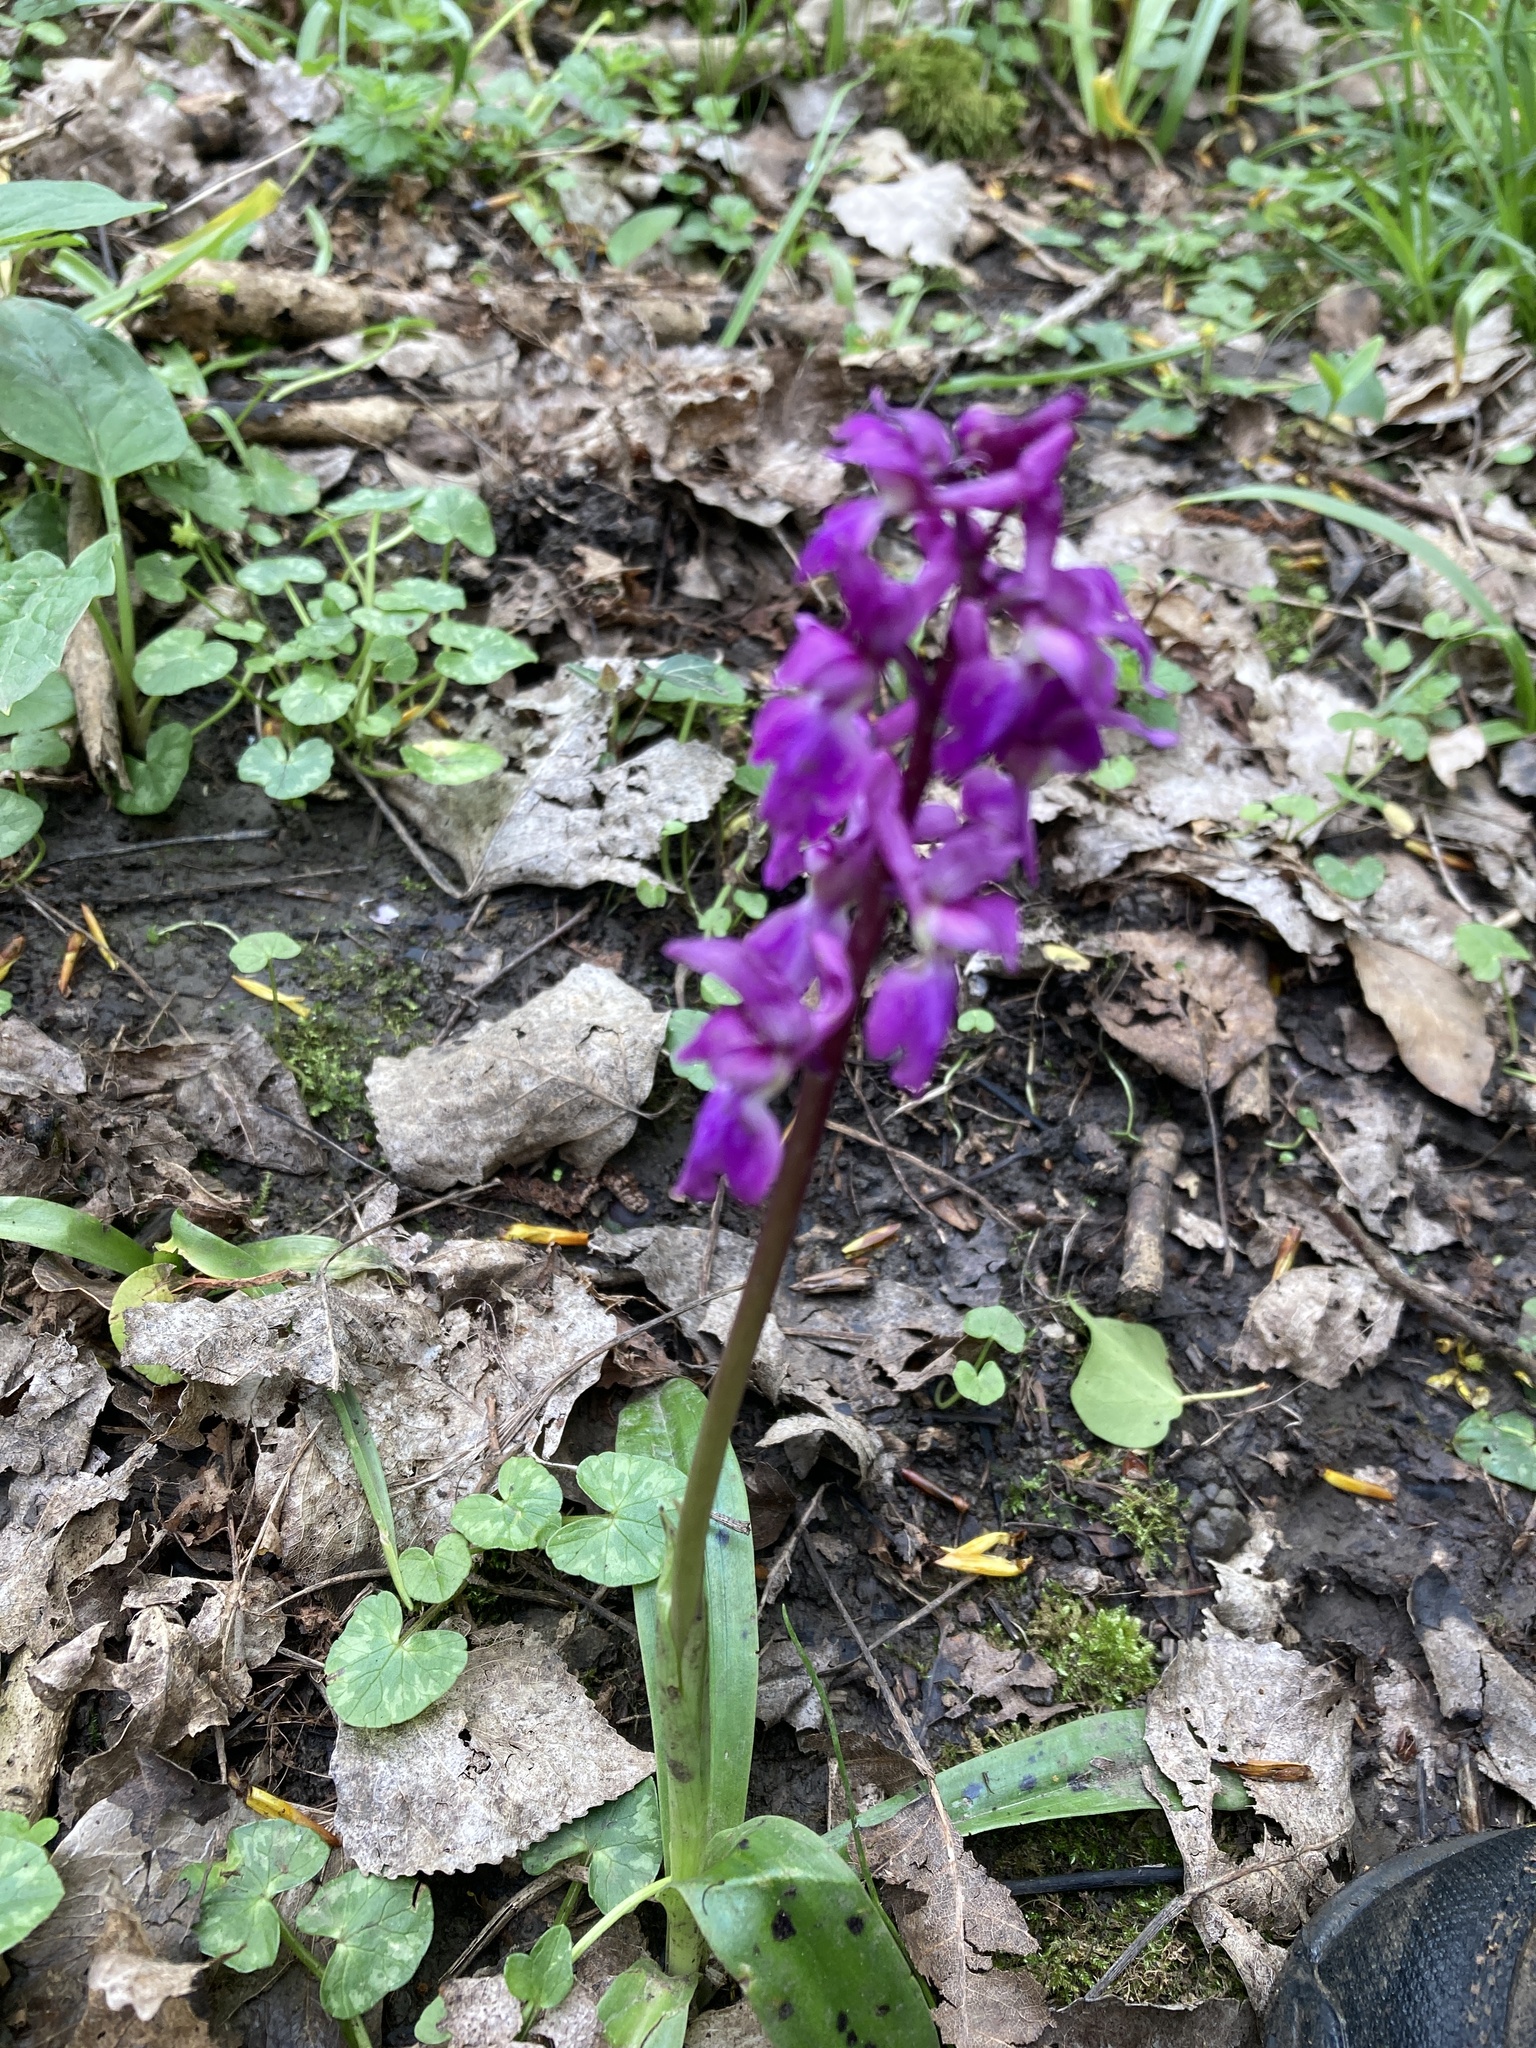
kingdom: Plantae
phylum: Tracheophyta
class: Liliopsida
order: Asparagales
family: Orchidaceae
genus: Orchis
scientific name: Orchis mascula
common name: Early-purple orchid
